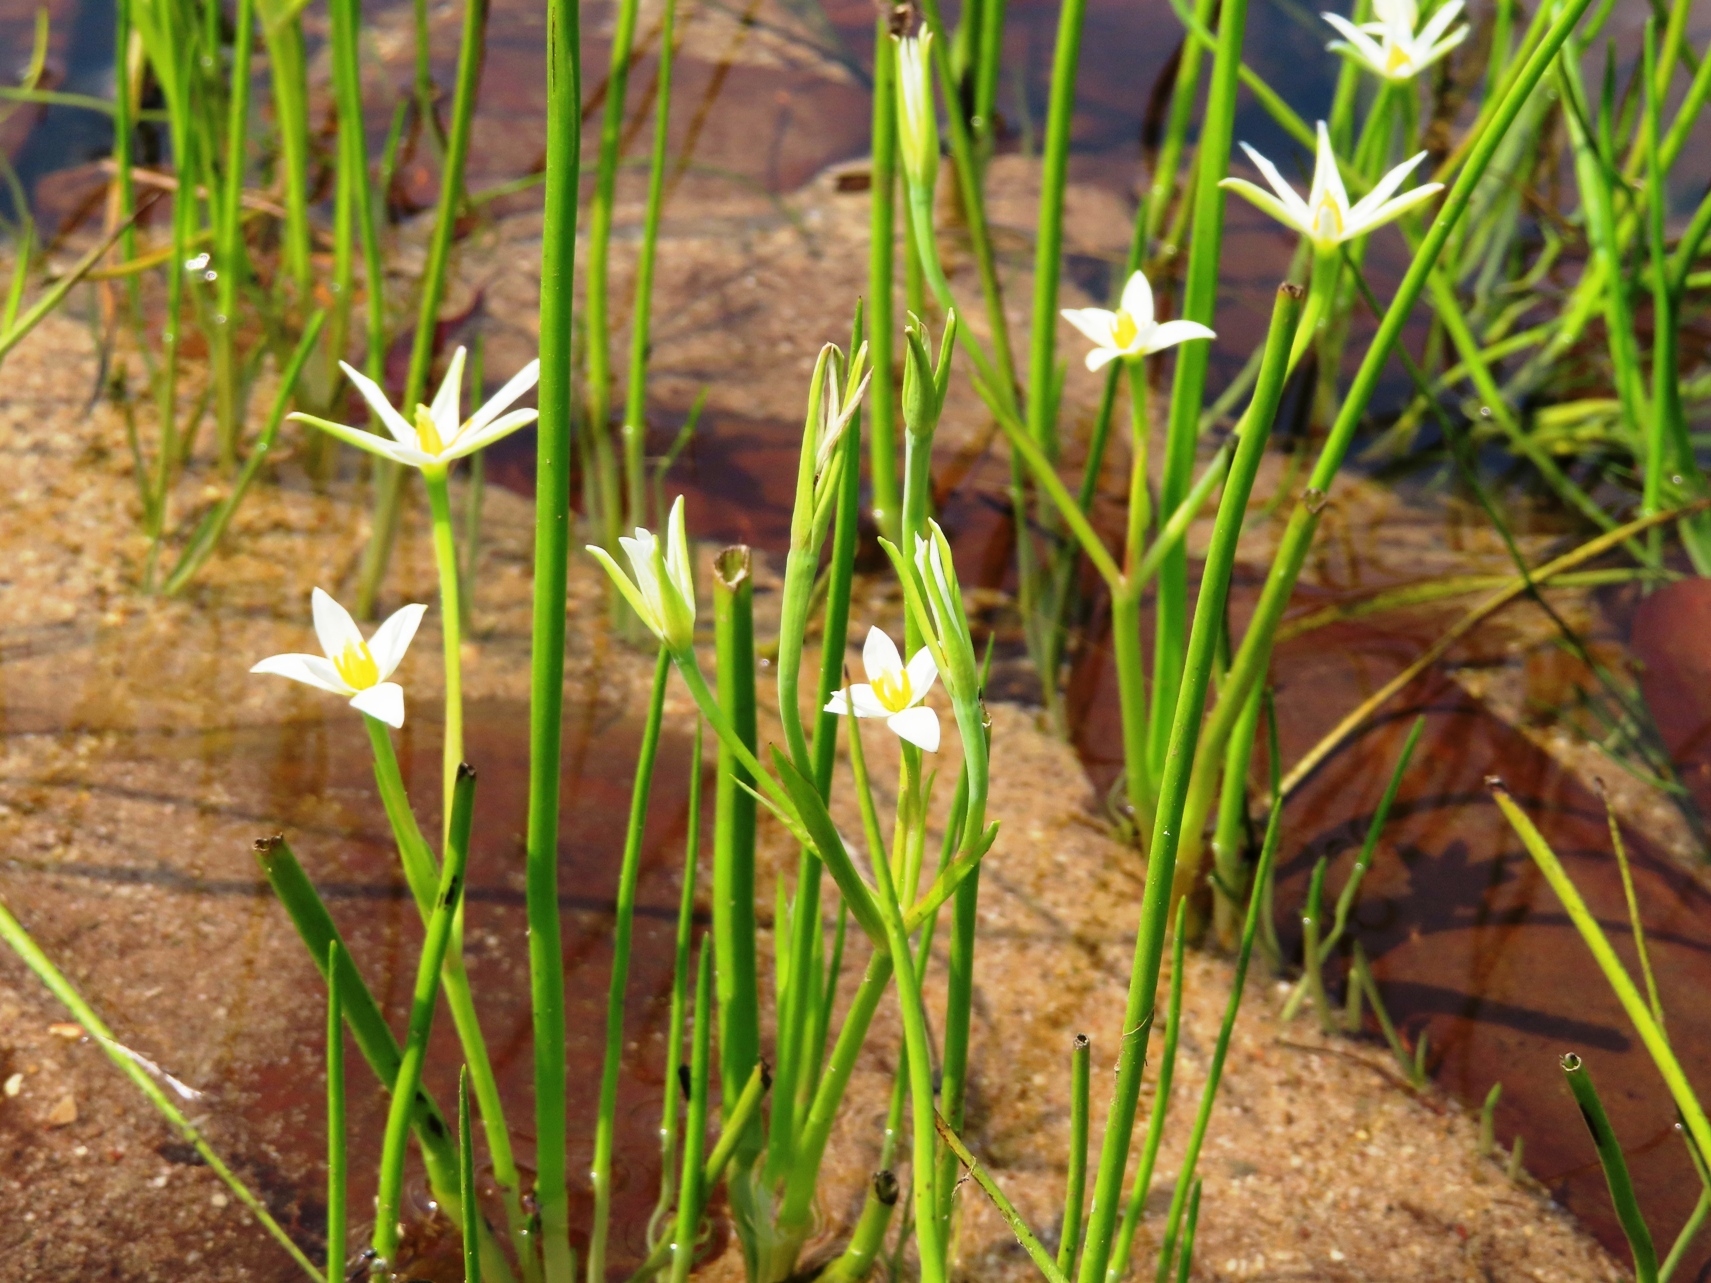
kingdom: Plantae
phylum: Tracheophyta
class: Liliopsida
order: Asparagales
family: Hypoxidaceae
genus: Pauridia
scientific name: Pauridia aquatica
